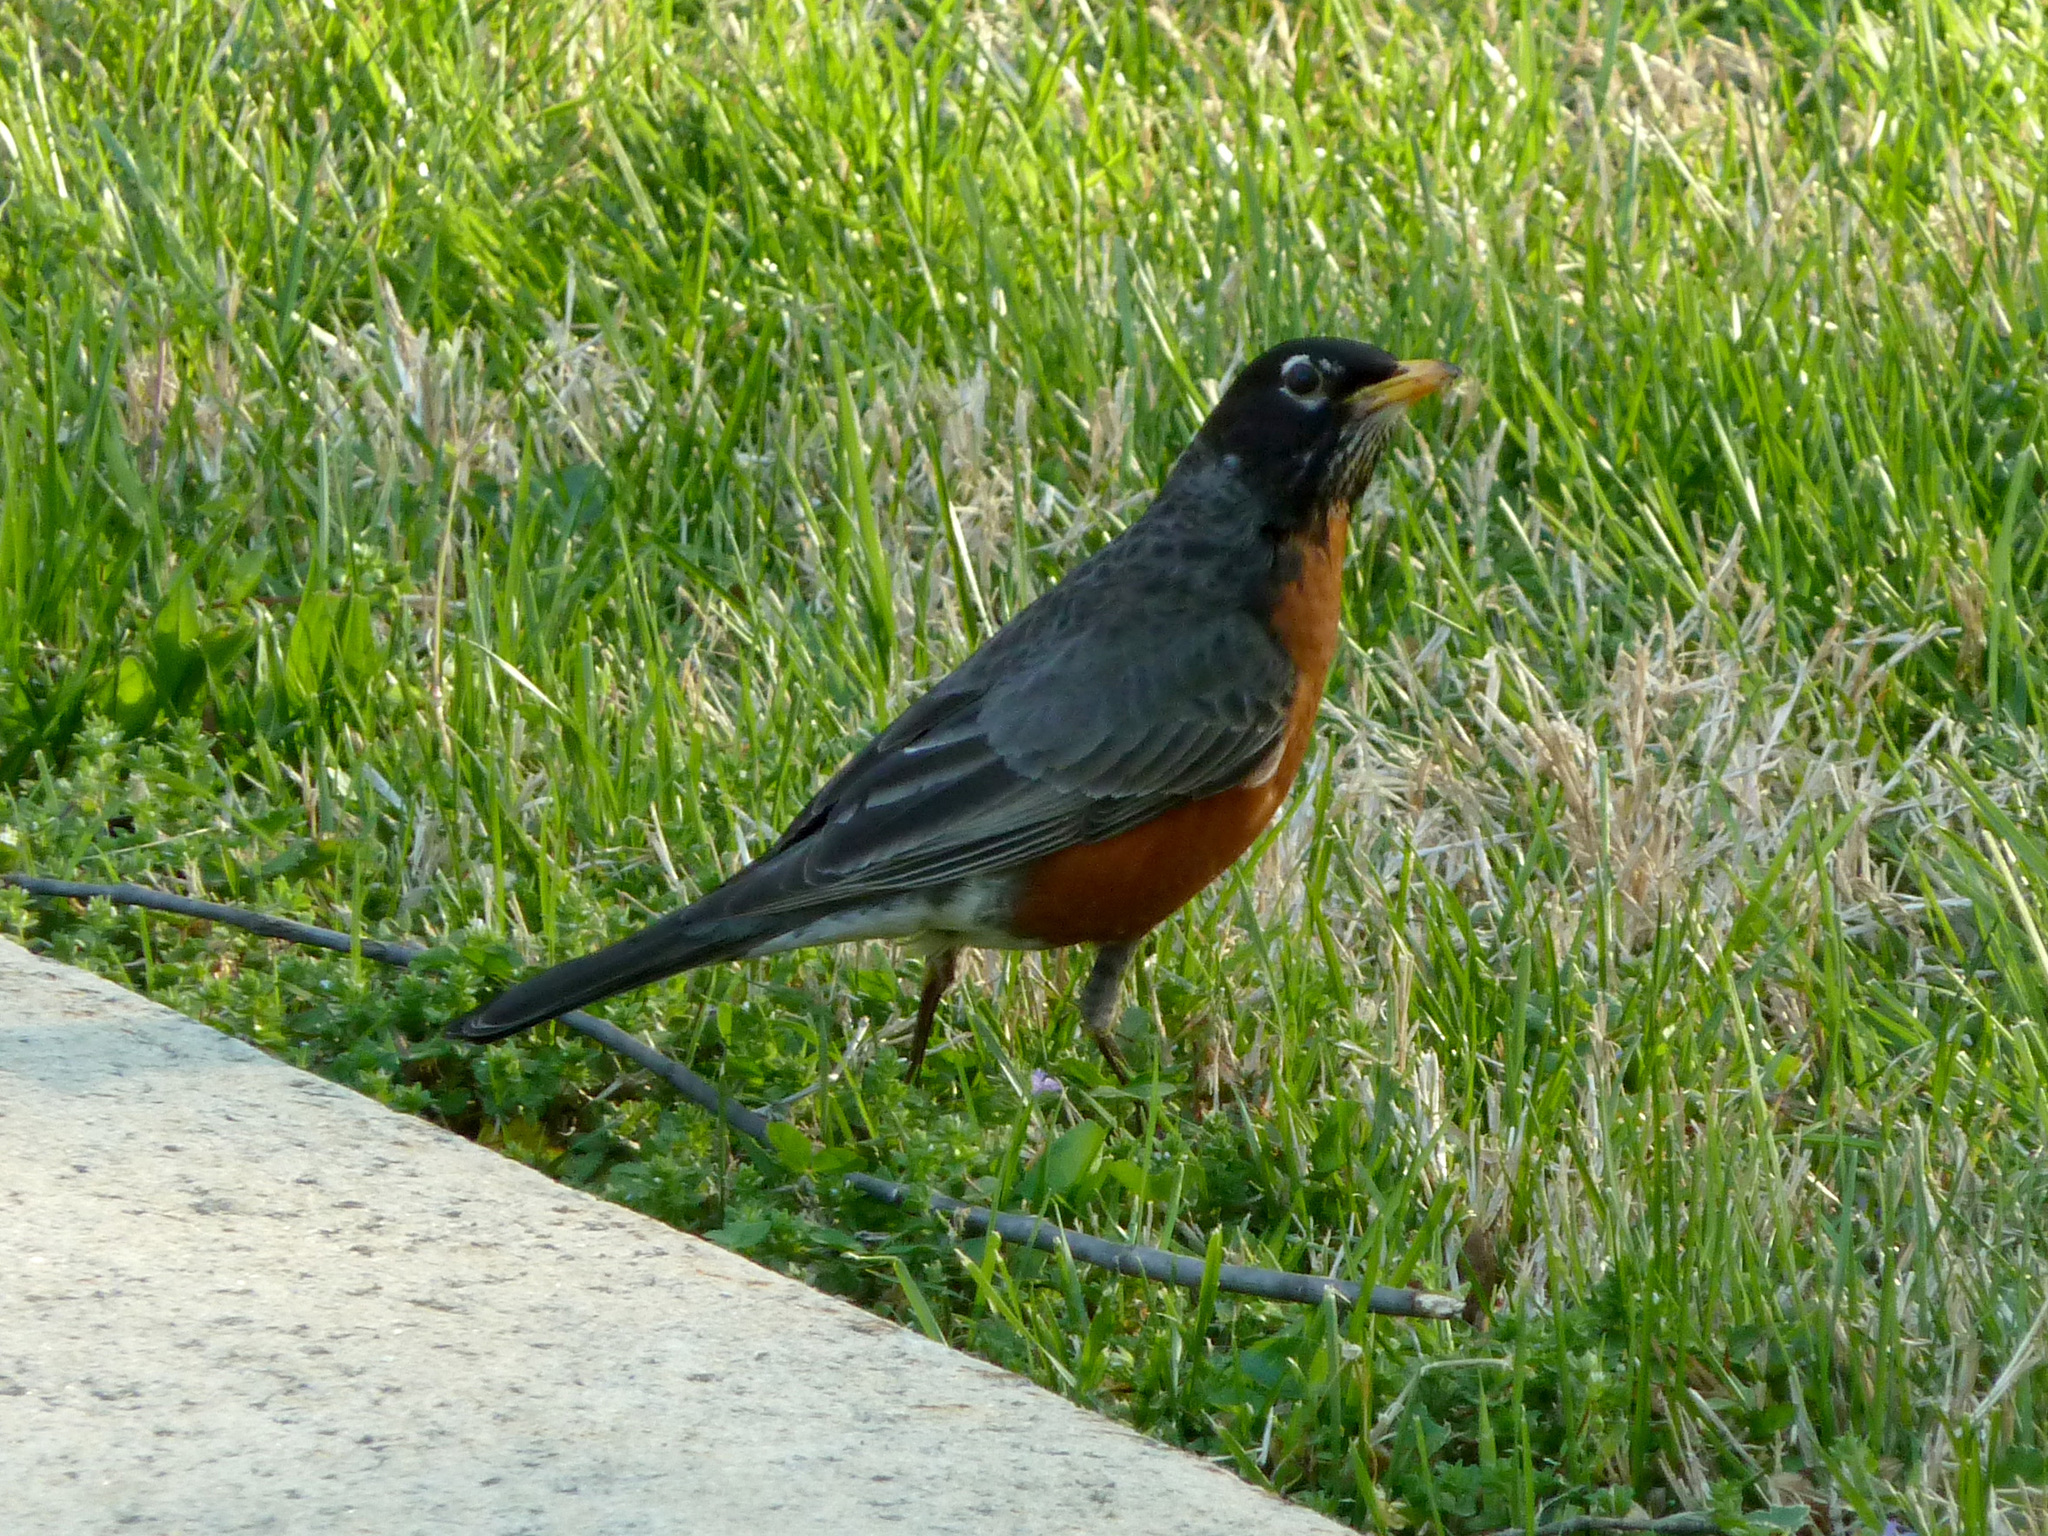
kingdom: Animalia
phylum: Chordata
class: Aves
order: Passeriformes
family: Turdidae
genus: Turdus
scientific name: Turdus migratorius
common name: American robin
